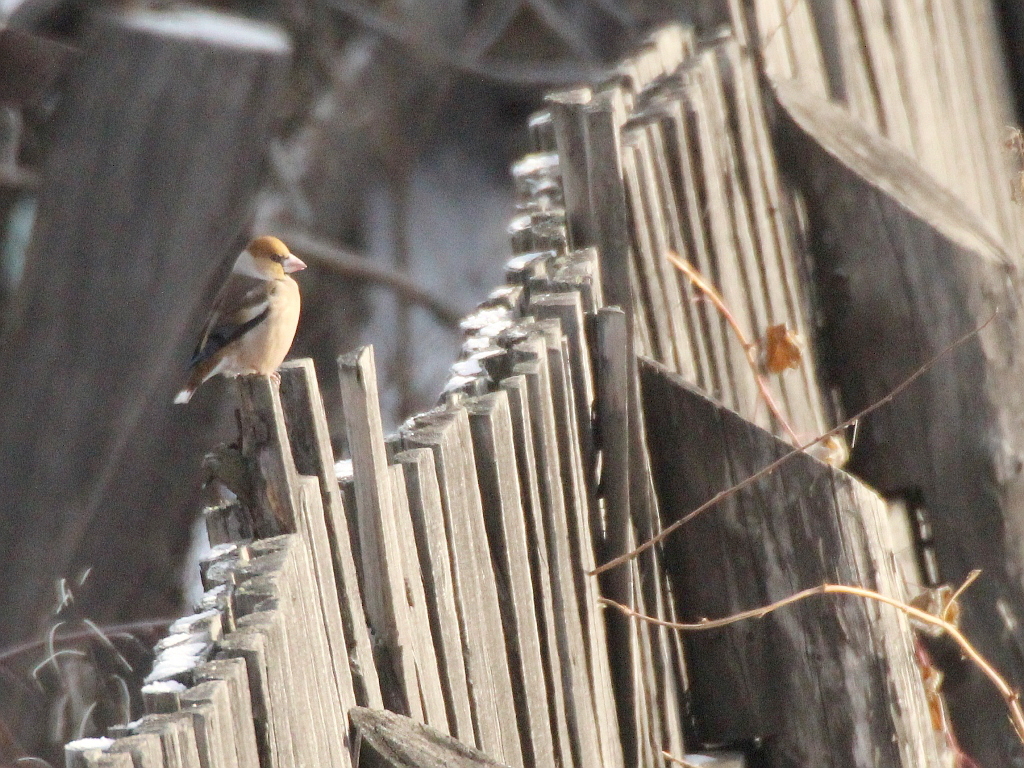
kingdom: Animalia
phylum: Chordata
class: Aves
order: Passeriformes
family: Fringillidae
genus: Coccothraustes
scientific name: Coccothraustes coccothraustes
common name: Hawfinch
